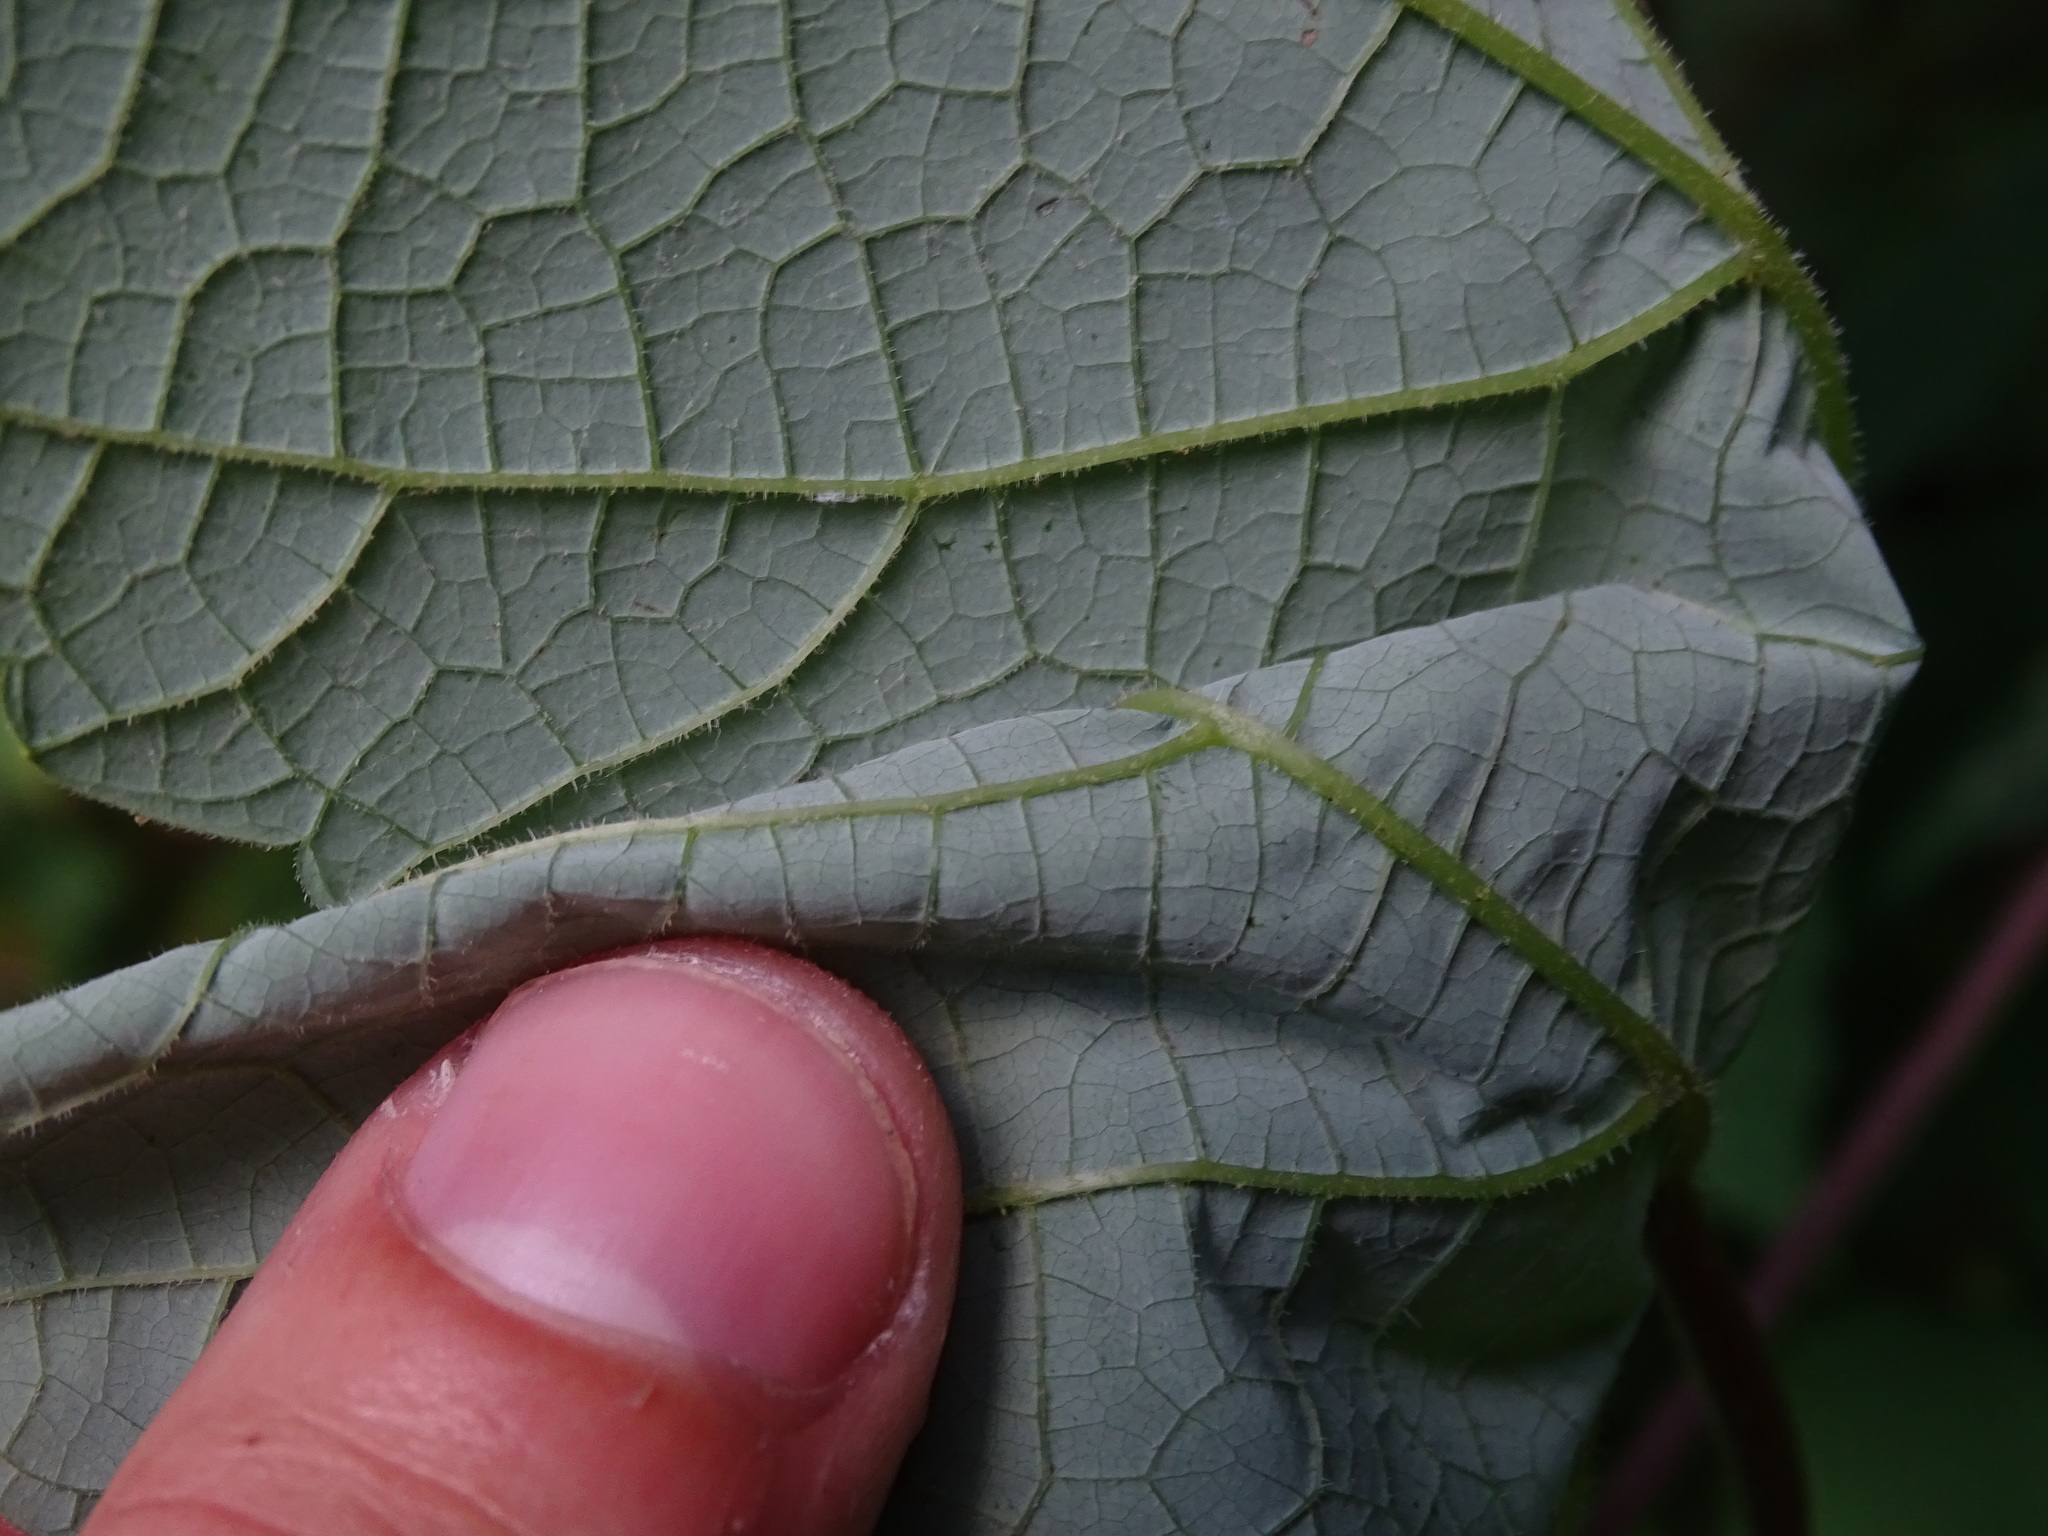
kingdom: Plantae
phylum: Tracheophyta
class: Magnoliopsida
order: Vitales
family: Vitaceae
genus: Vitis
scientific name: Vitis aestivalis
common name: Pigeon grape
